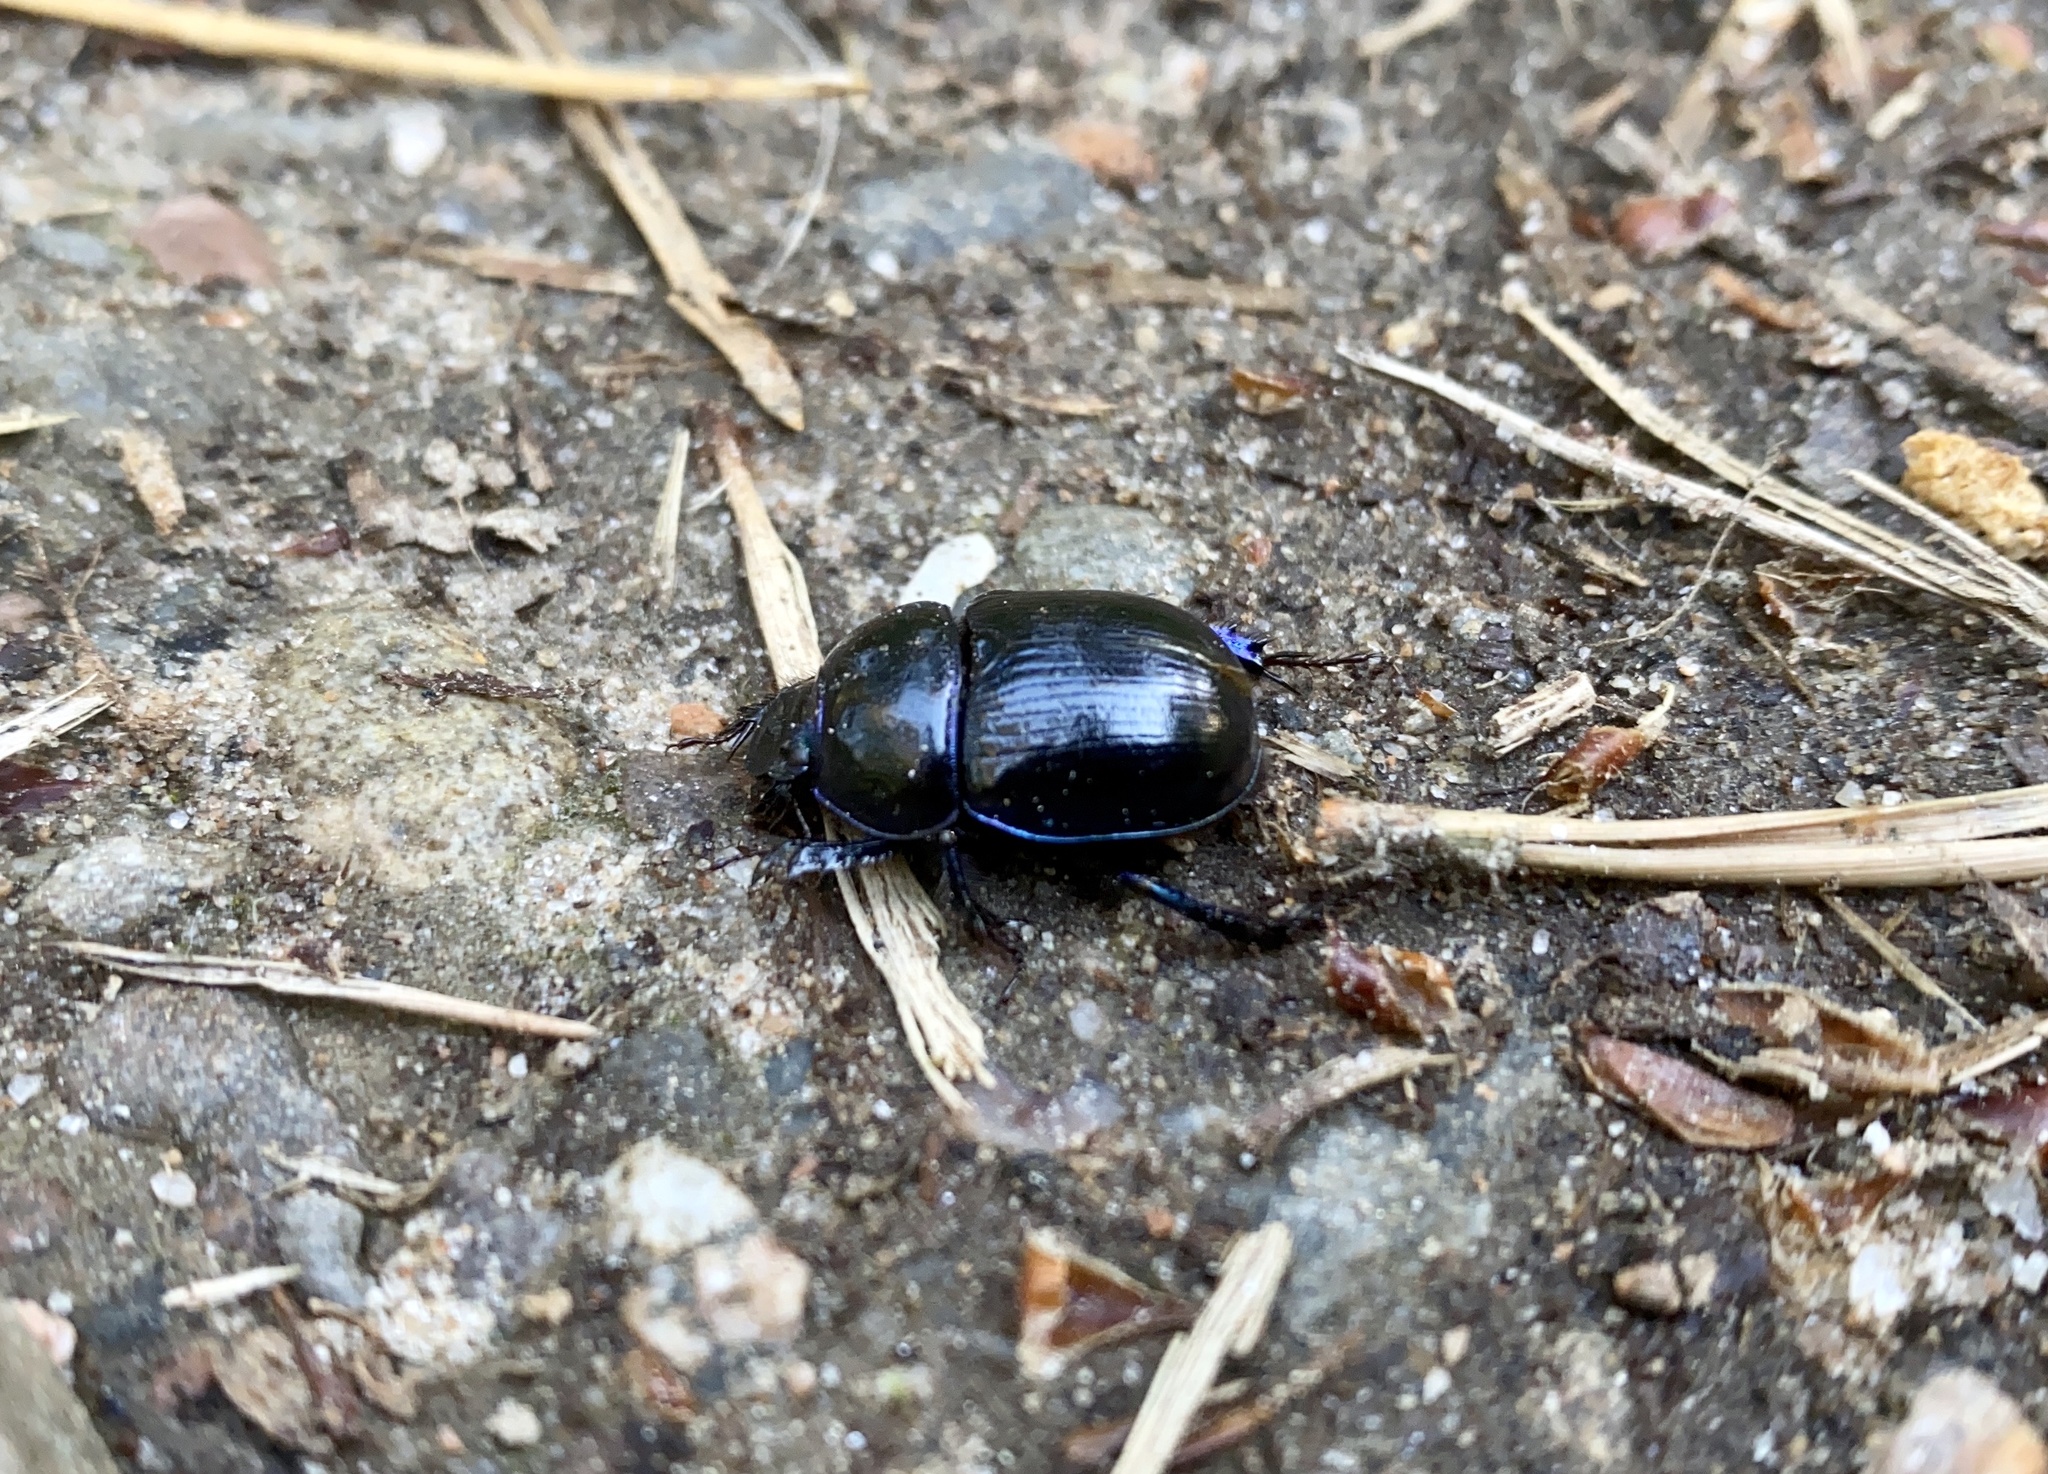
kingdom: Animalia
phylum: Arthropoda
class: Insecta
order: Coleoptera
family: Geotrupidae
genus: Anoplotrupes
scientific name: Anoplotrupes stercorosus
